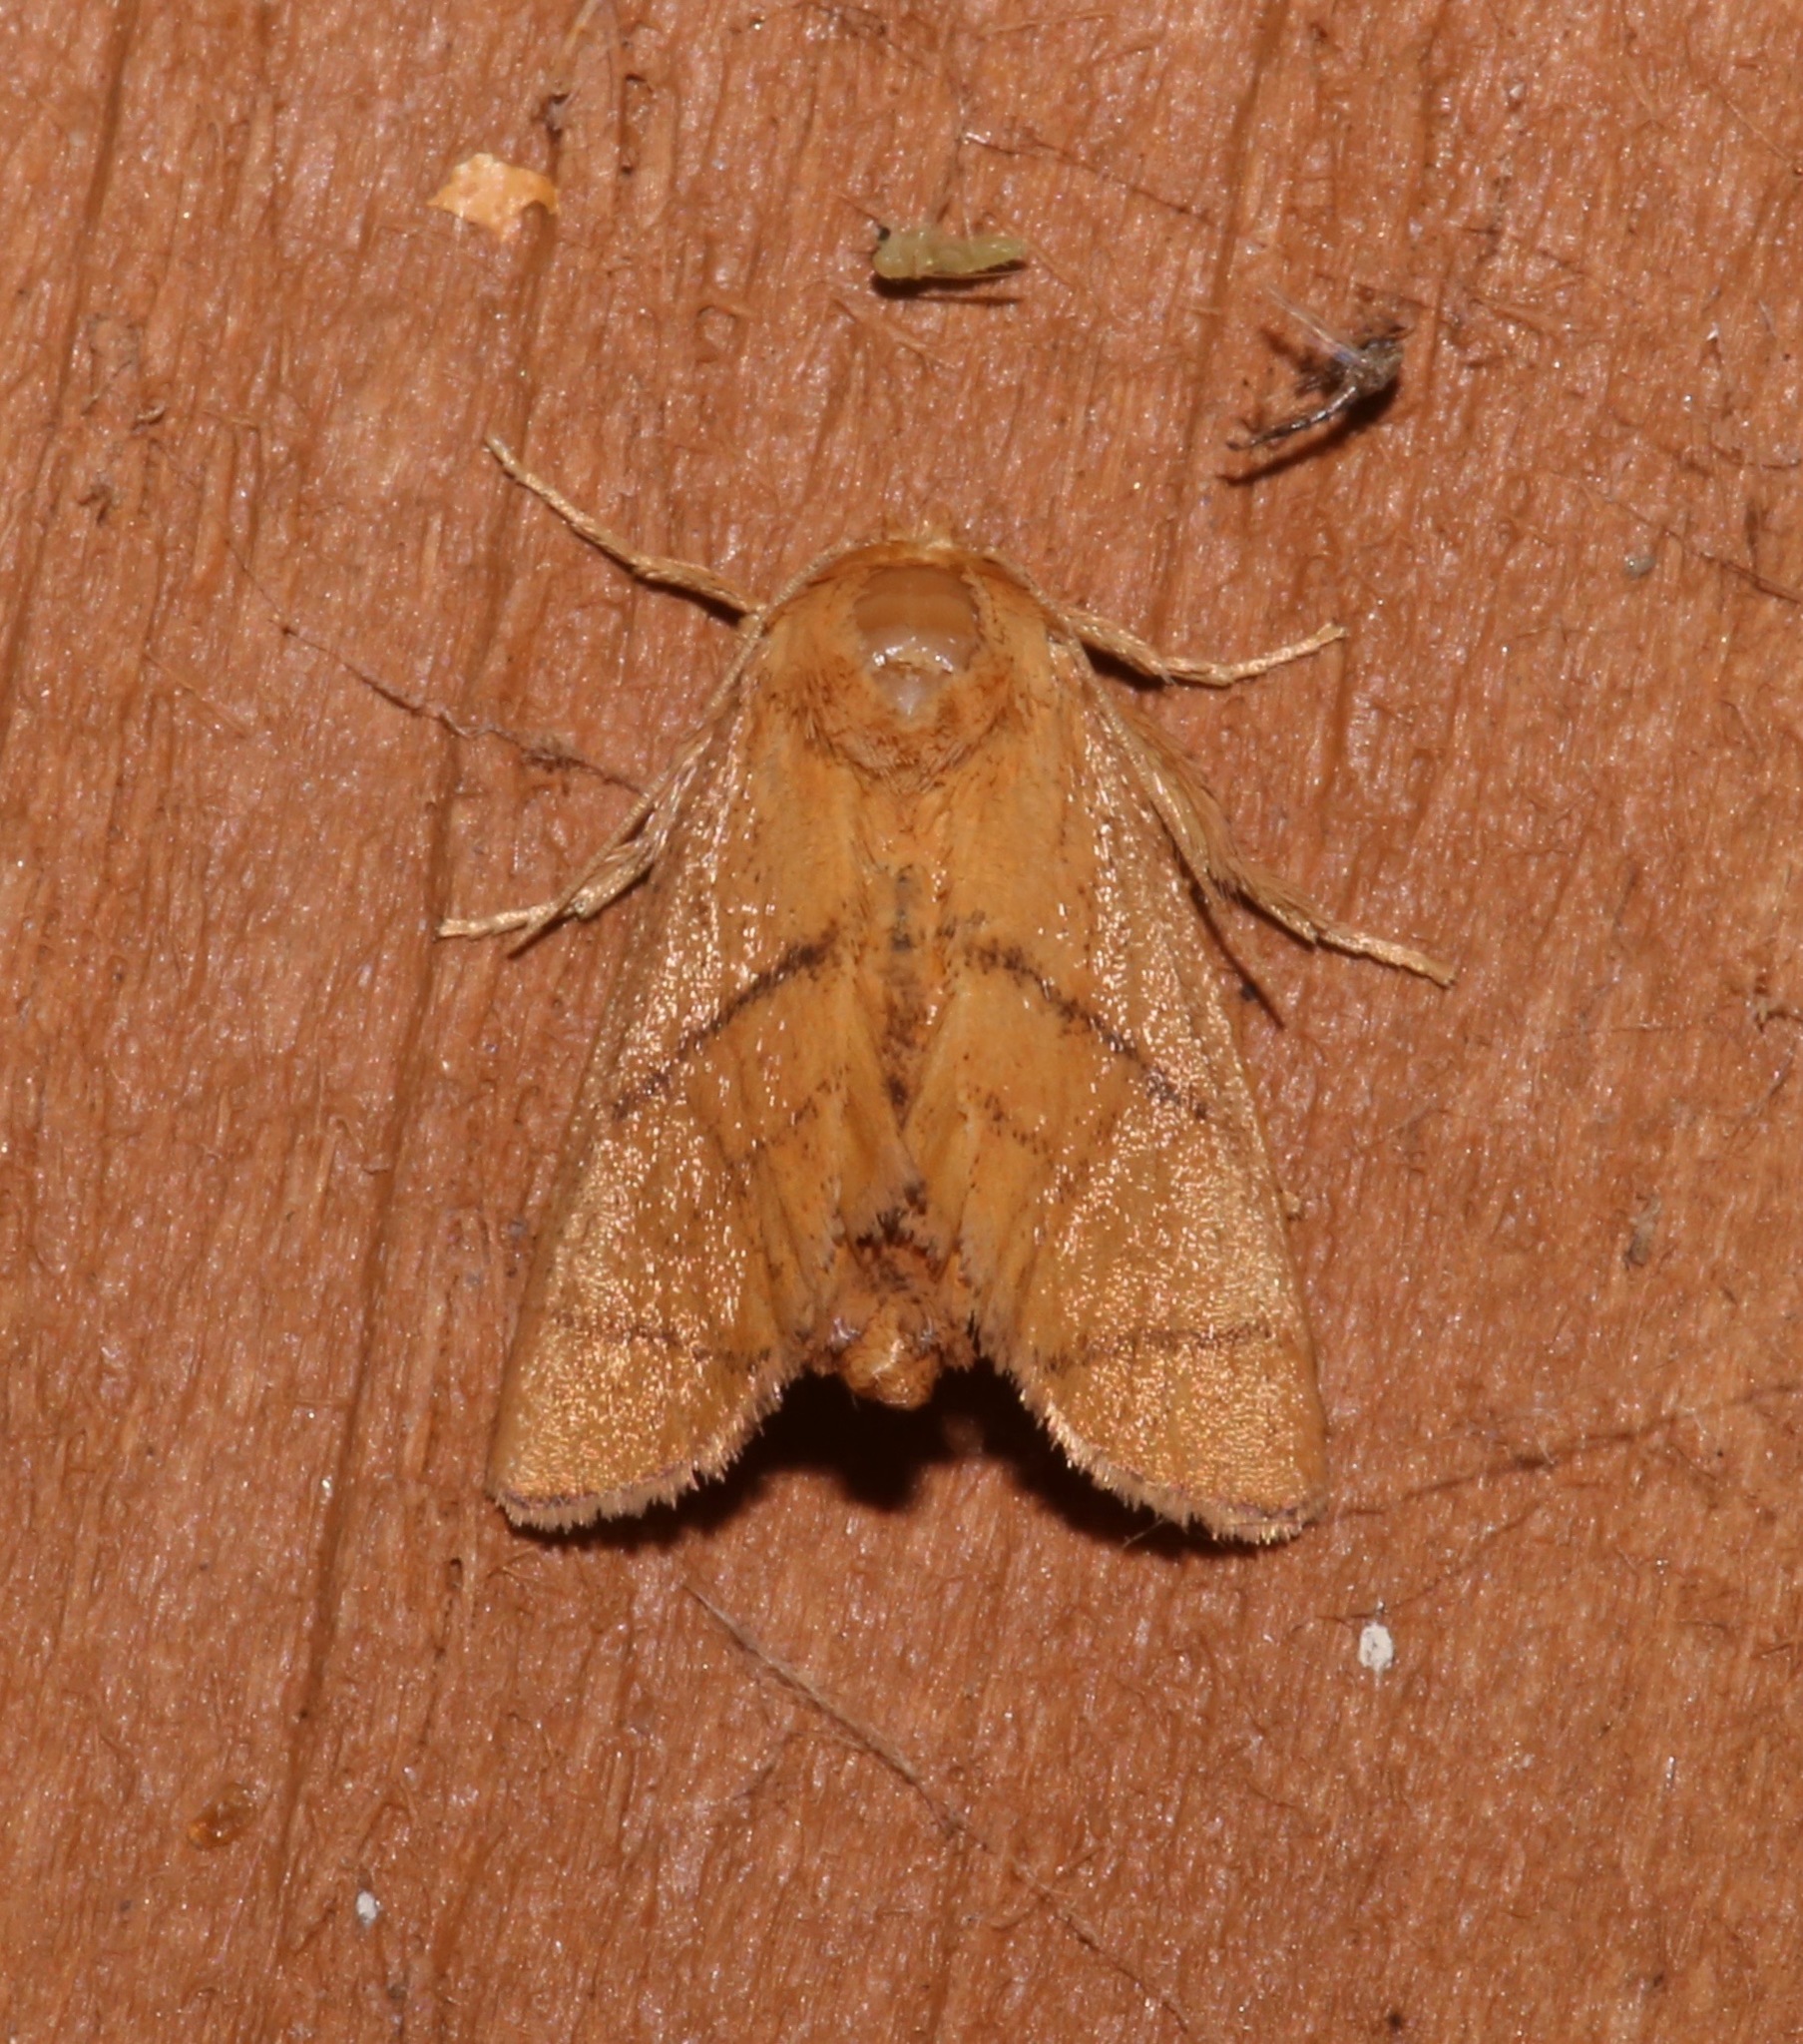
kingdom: Animalia
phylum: Arthropoda
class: Insecta
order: Lepidoptera
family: Limacodidae
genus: Apoda
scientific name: Apoda y-inversa
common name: Yellow-collared slug moth
